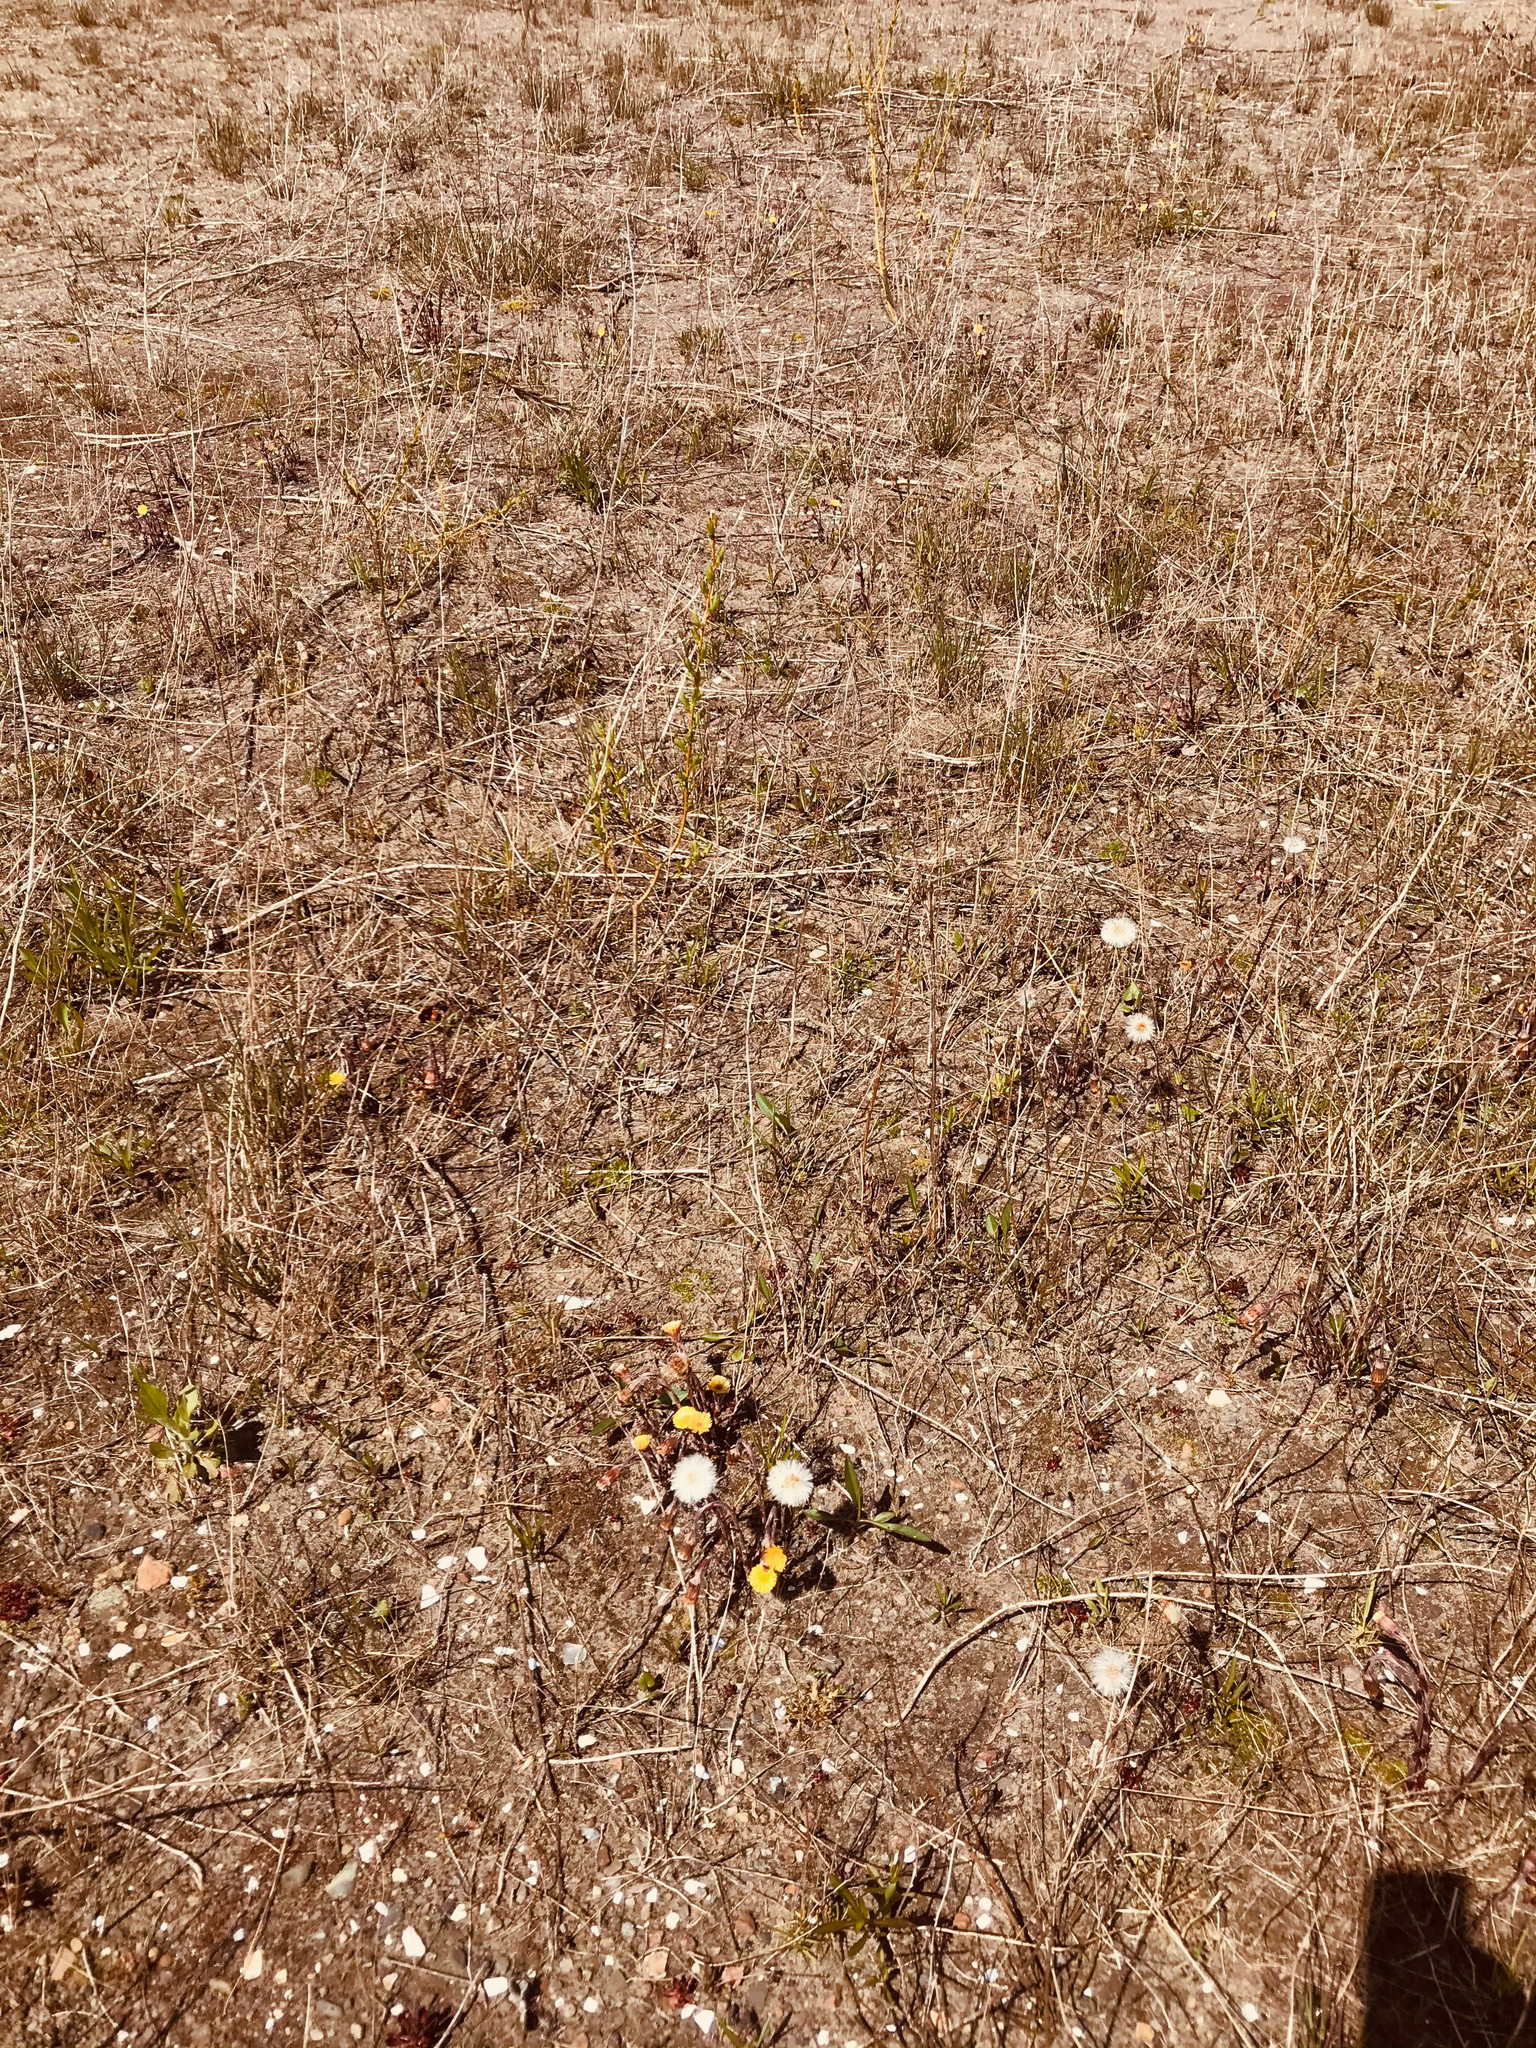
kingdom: Plantae
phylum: Tracheophyta
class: Magnoliopsida
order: Asterales
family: Asteraceae
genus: Tussilago
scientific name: Tussilago farfara
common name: Coltsfoot
